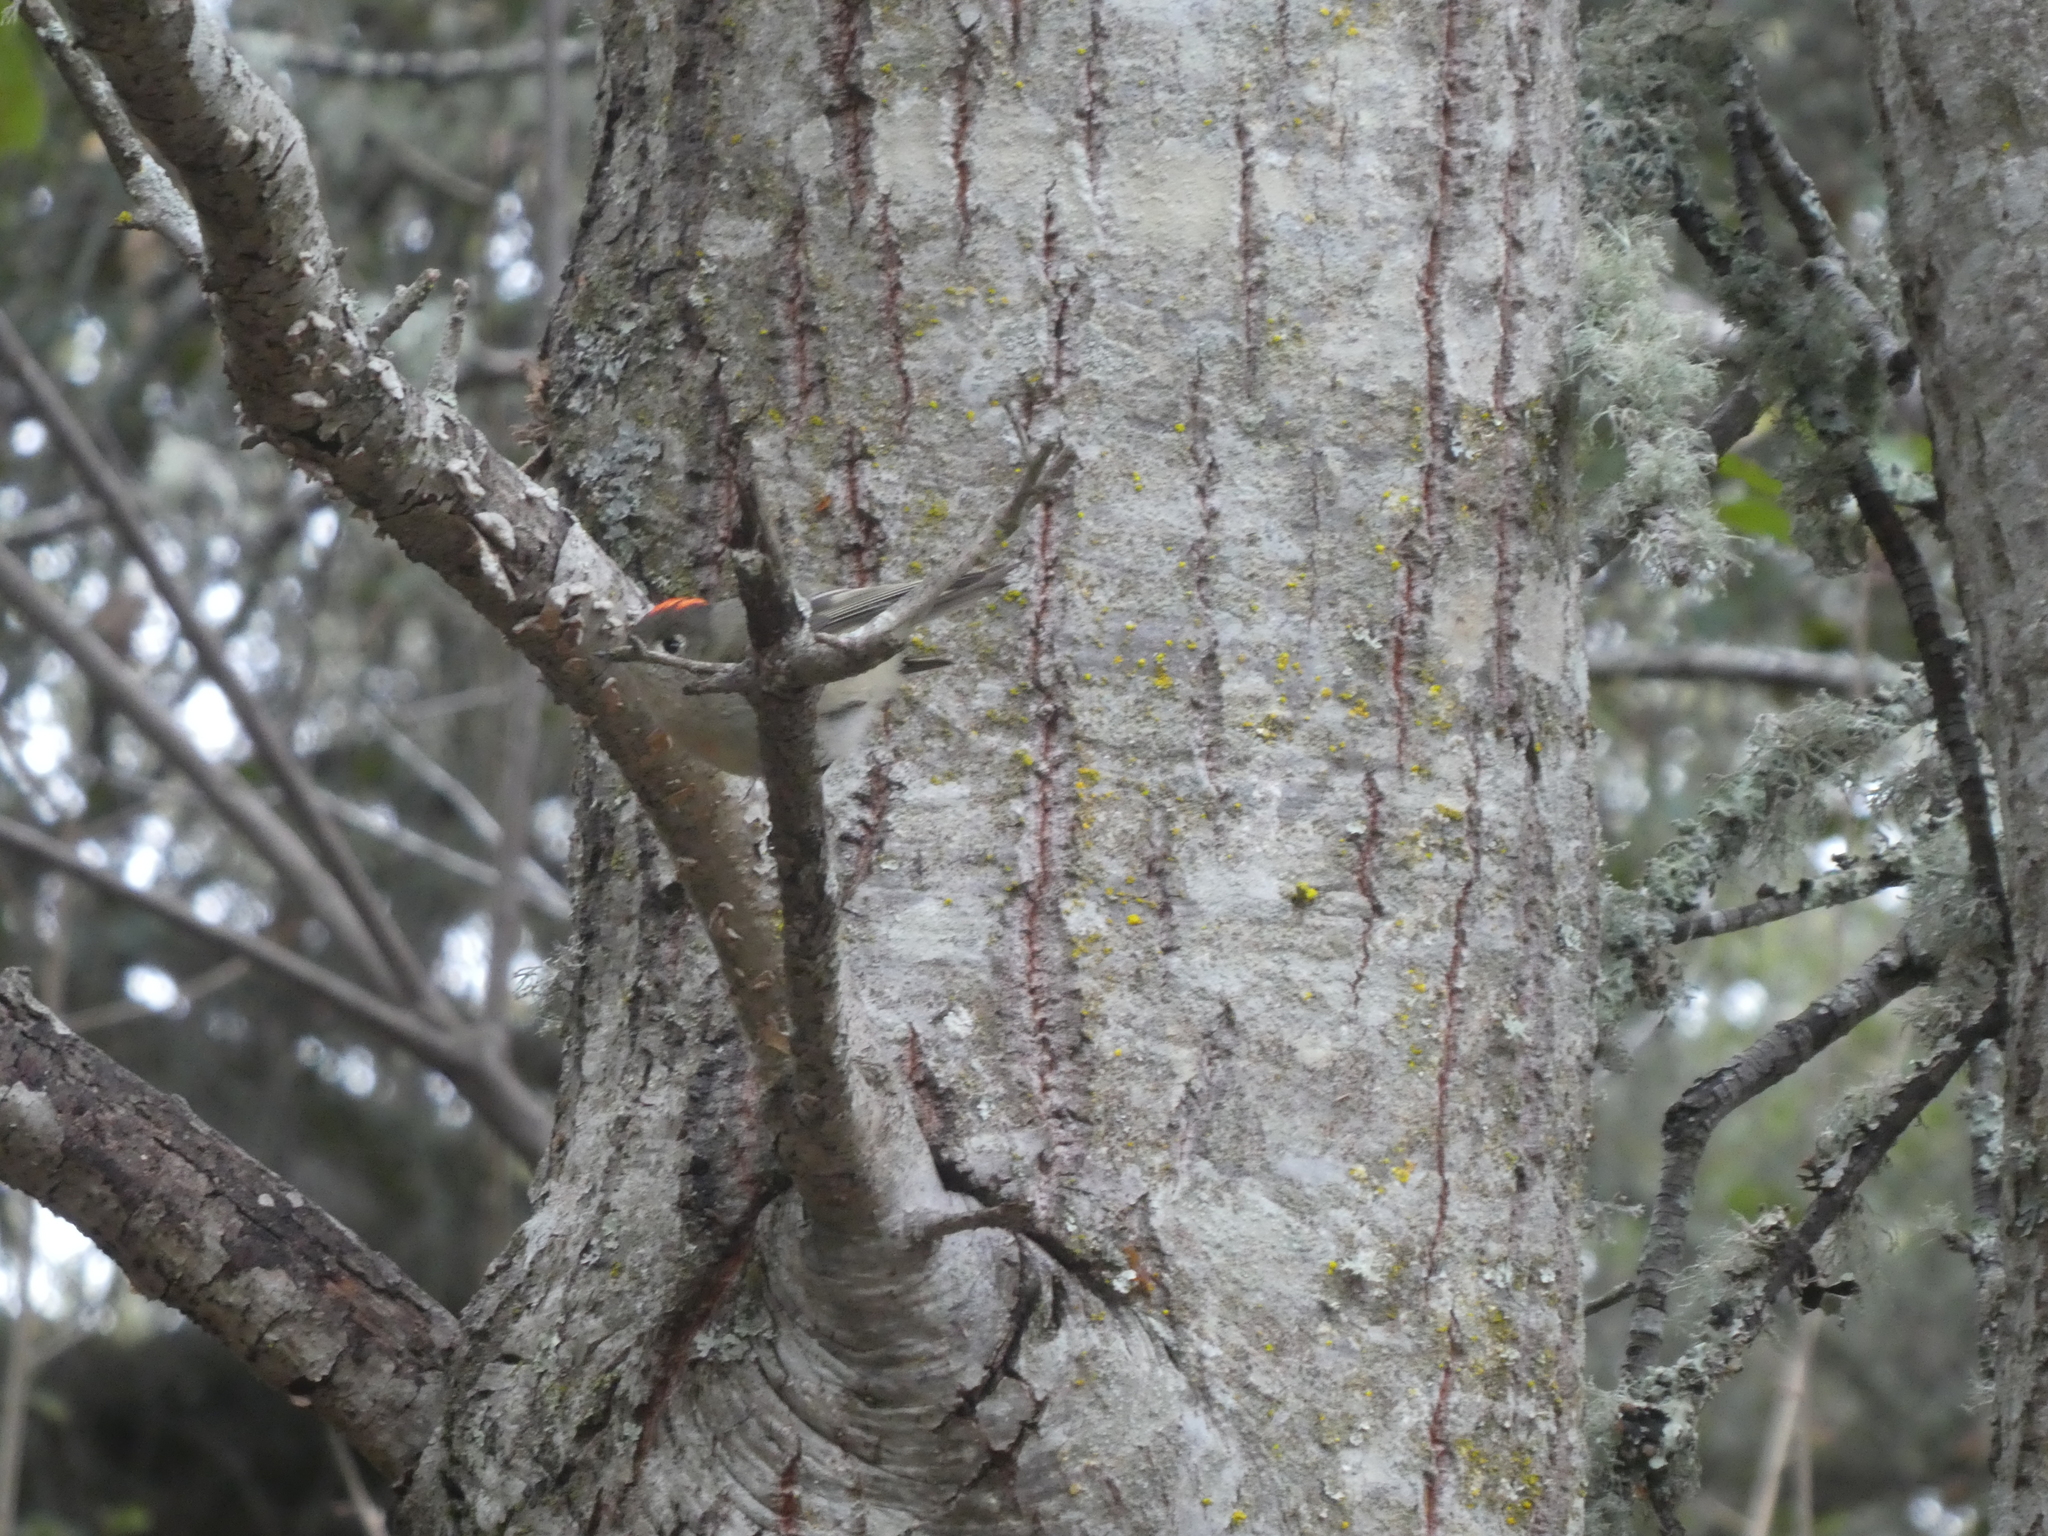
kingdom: Animalia
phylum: Chordata
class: Aves
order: Passeriformes
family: Regulidae
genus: Regulus
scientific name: Regulus calendula
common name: Ruby-crowned kinglet
